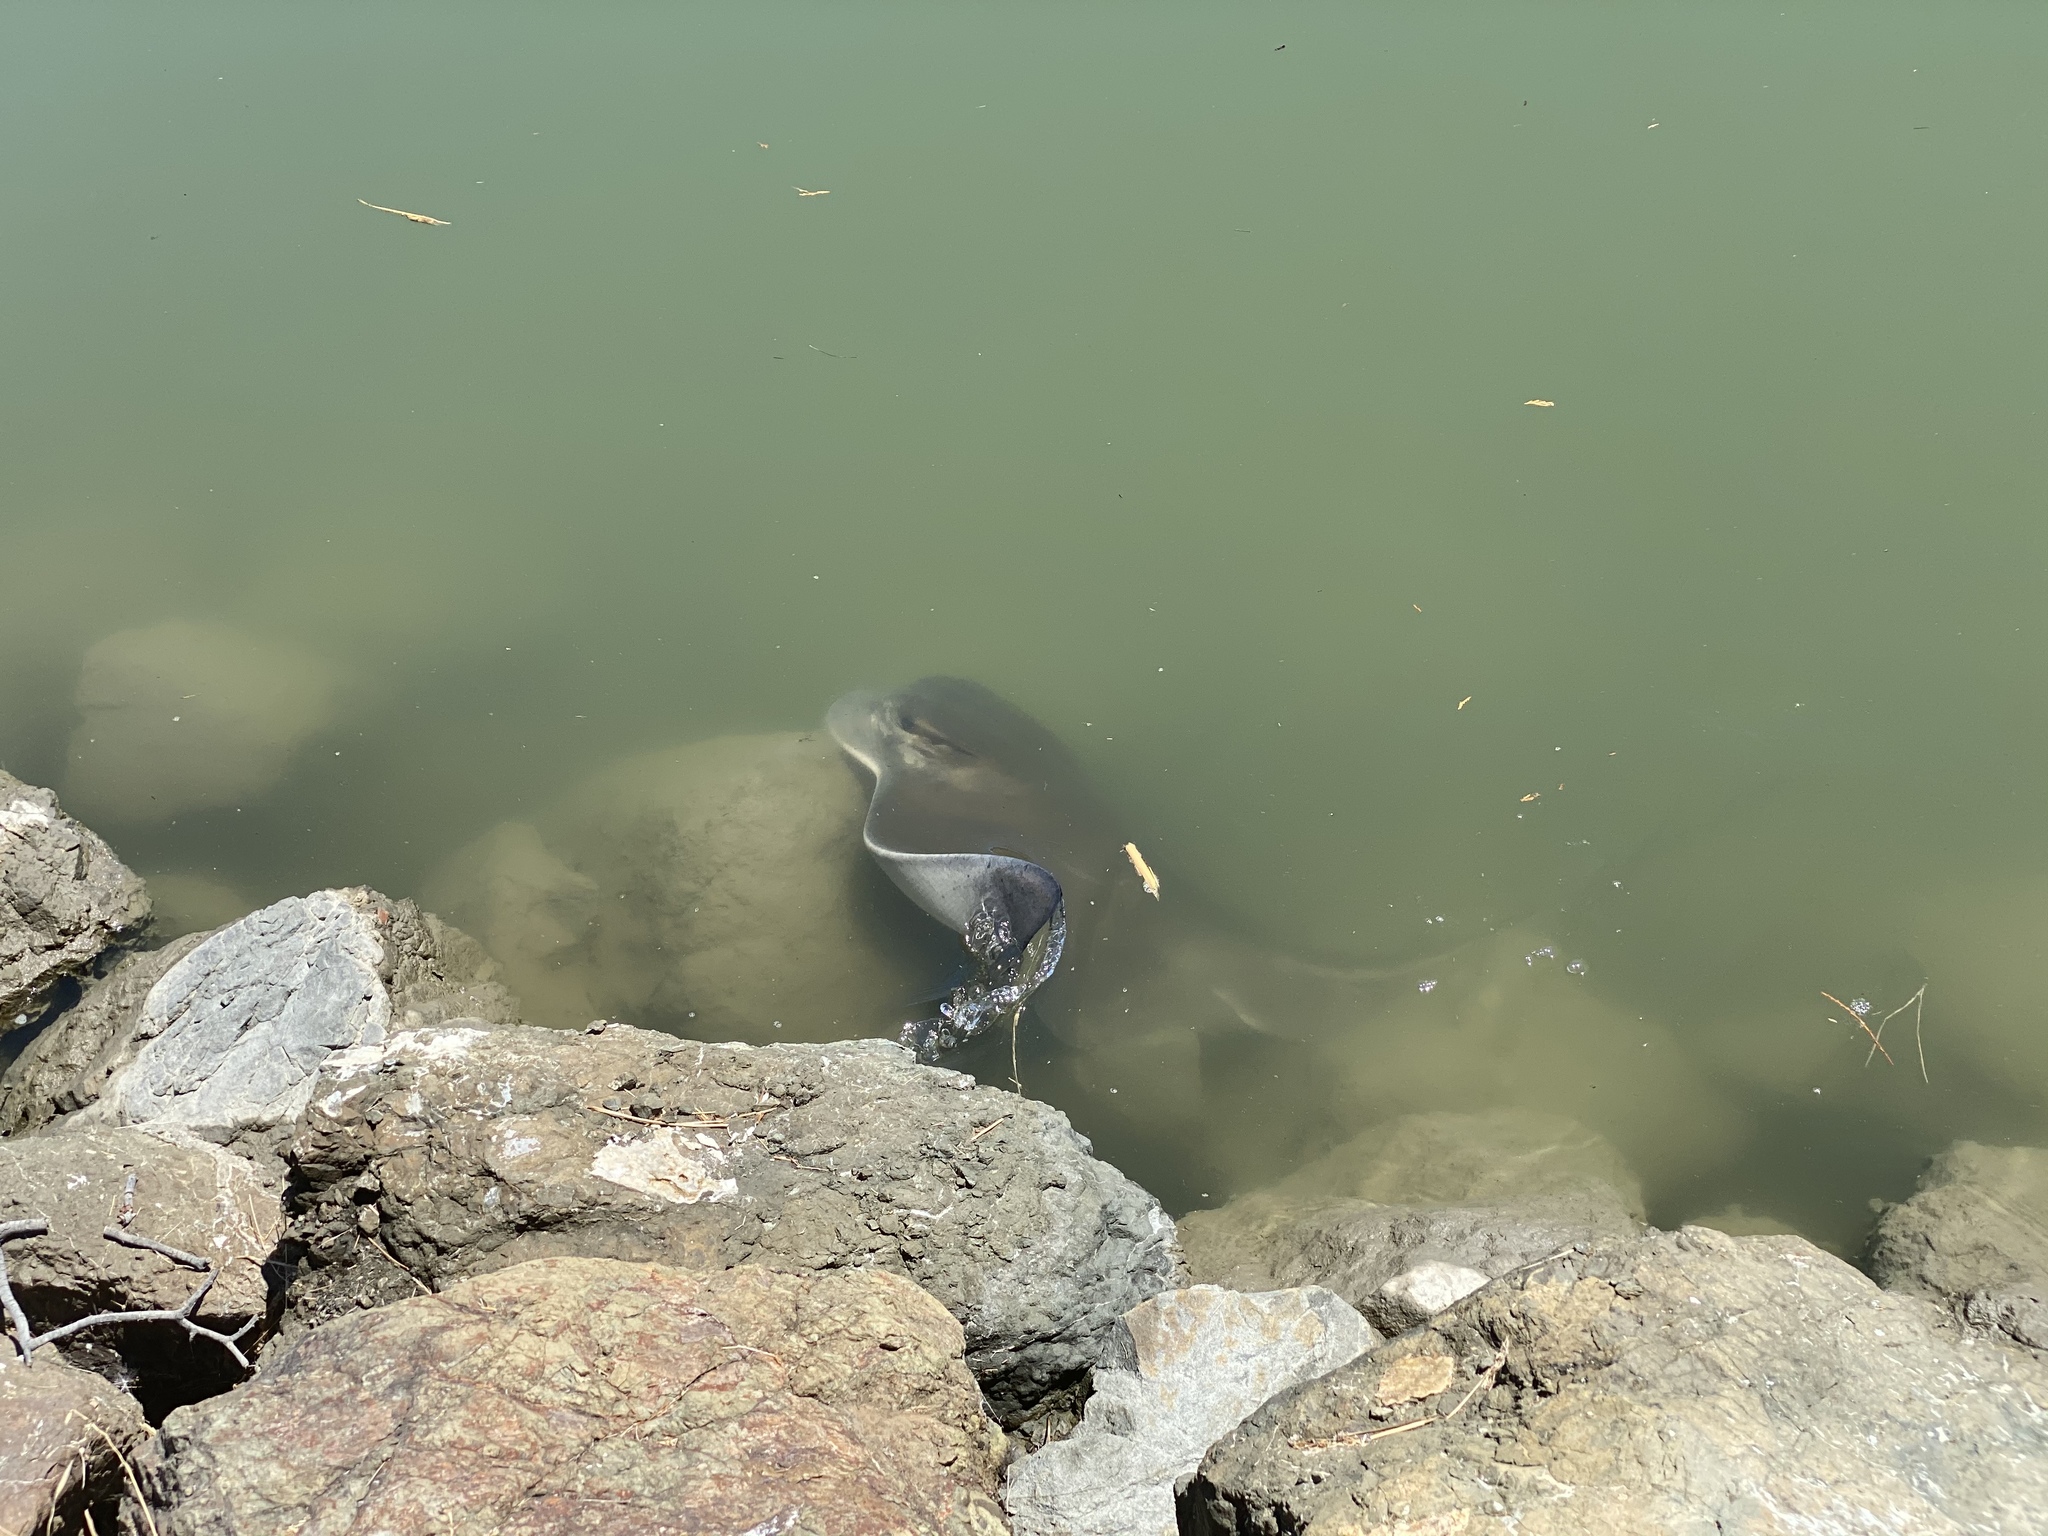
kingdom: Animalia
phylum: Chordata
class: Elasmobranchii
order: Myliobatiformes
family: Myliobatidae
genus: Myliobatis
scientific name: Myliobatis californica
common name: Bat ray
